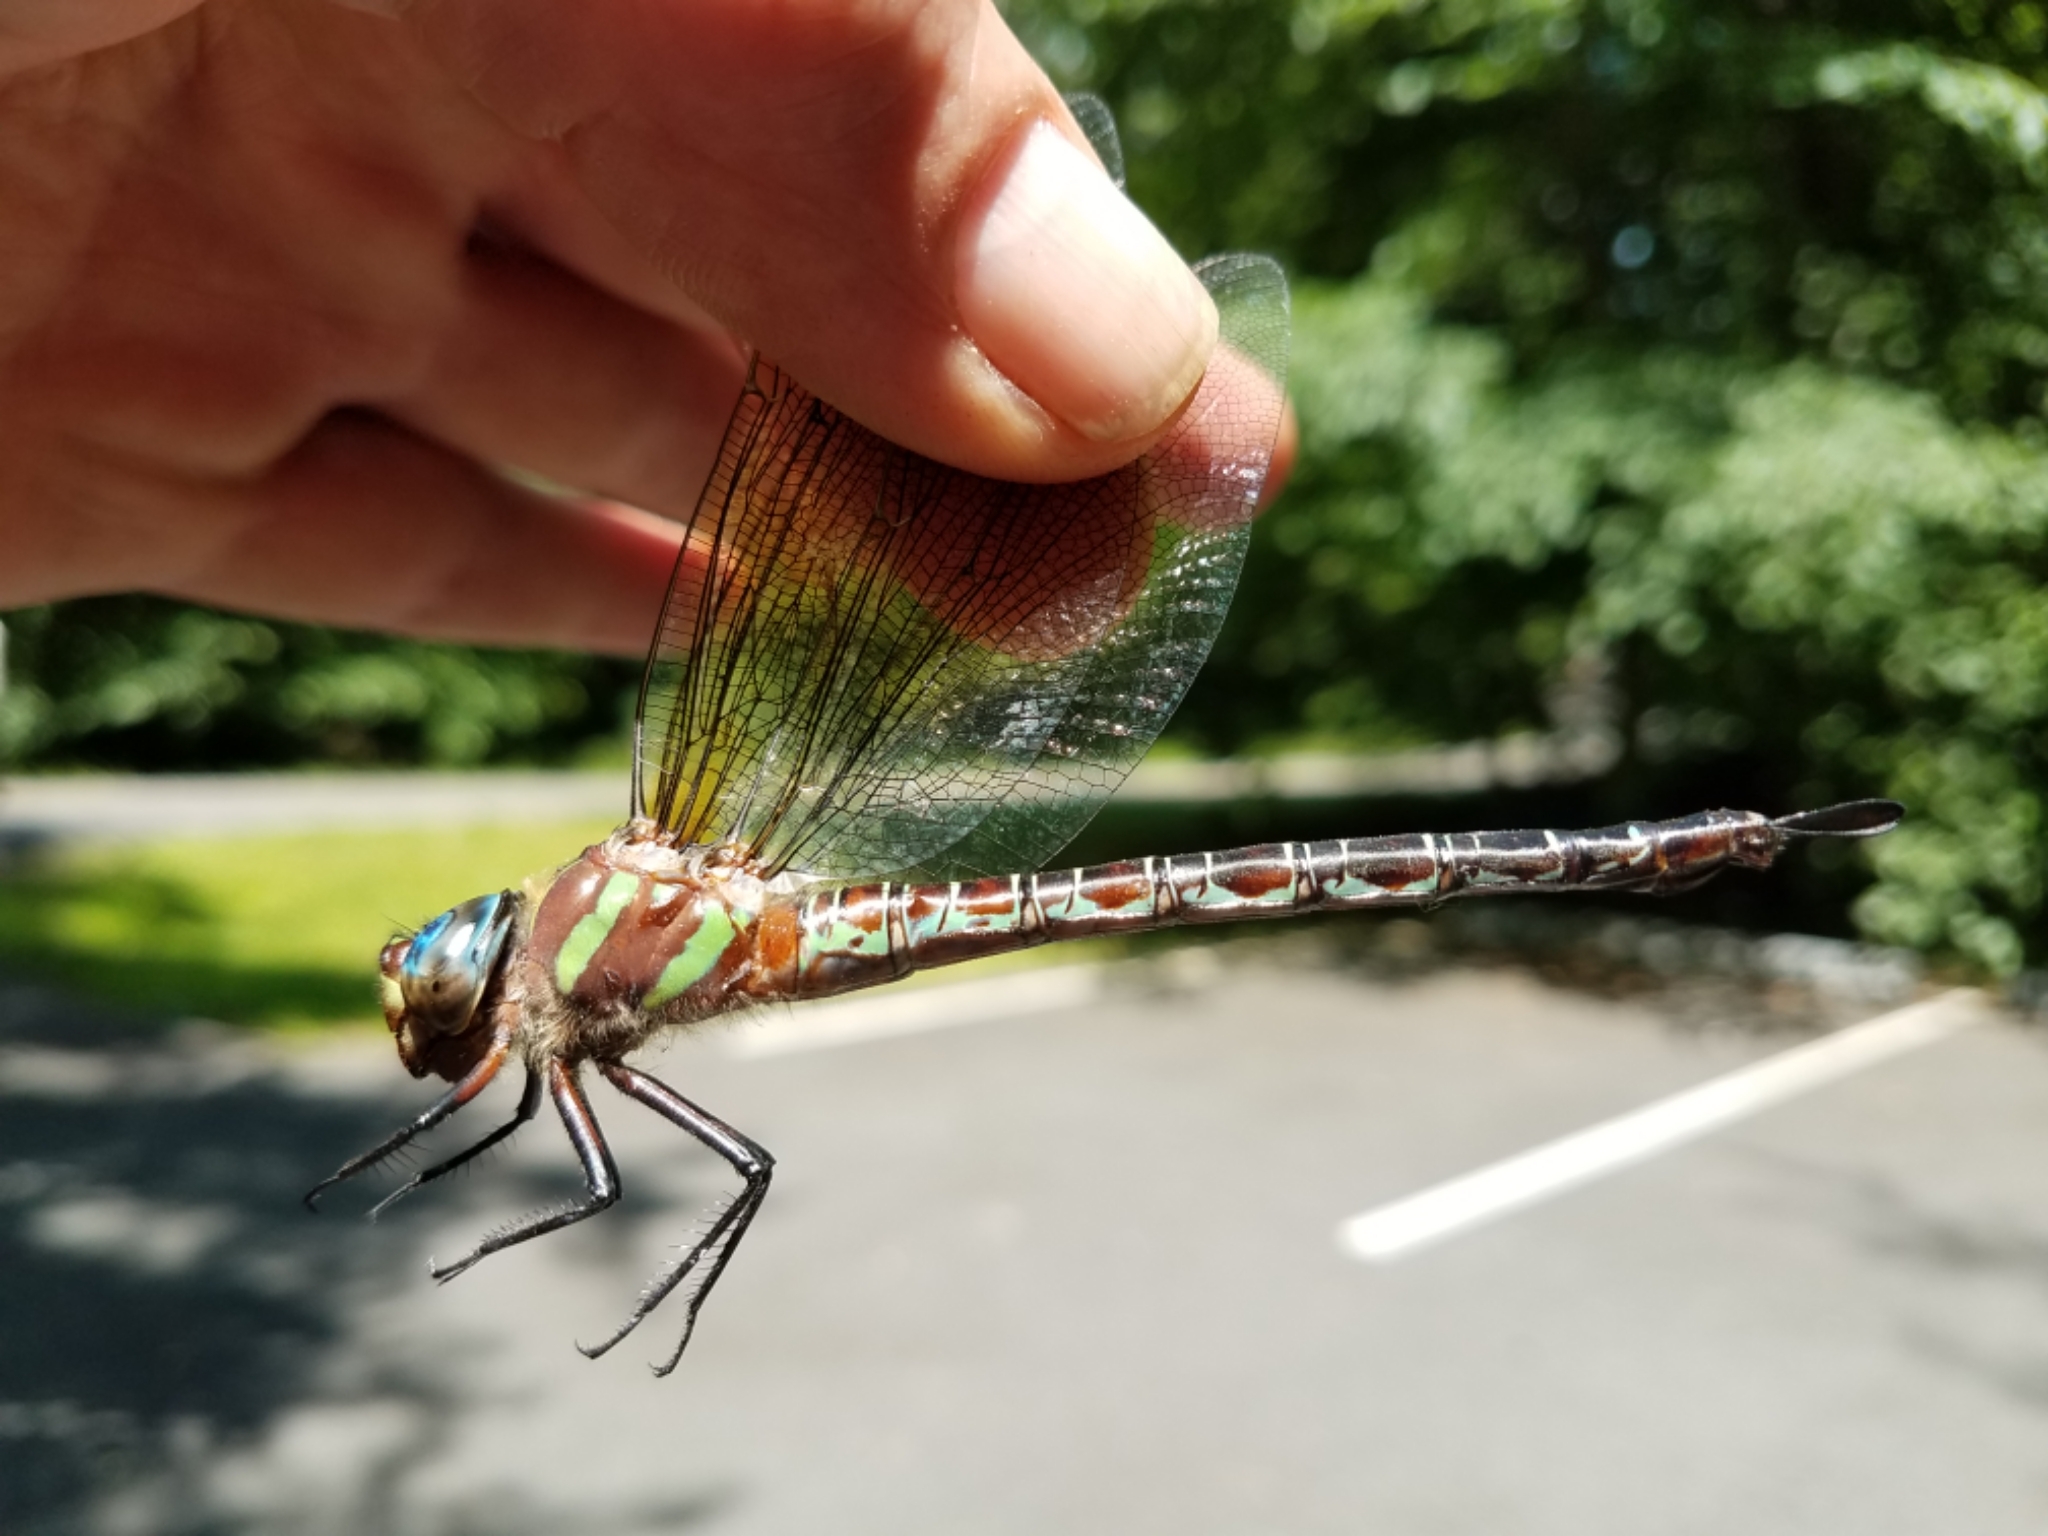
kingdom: Animalia
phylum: Arthropoda
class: Insecta
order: Odonata
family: Aeshnidae
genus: Epiaeschna
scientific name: Epiaeschna heros
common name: Swamp darner
